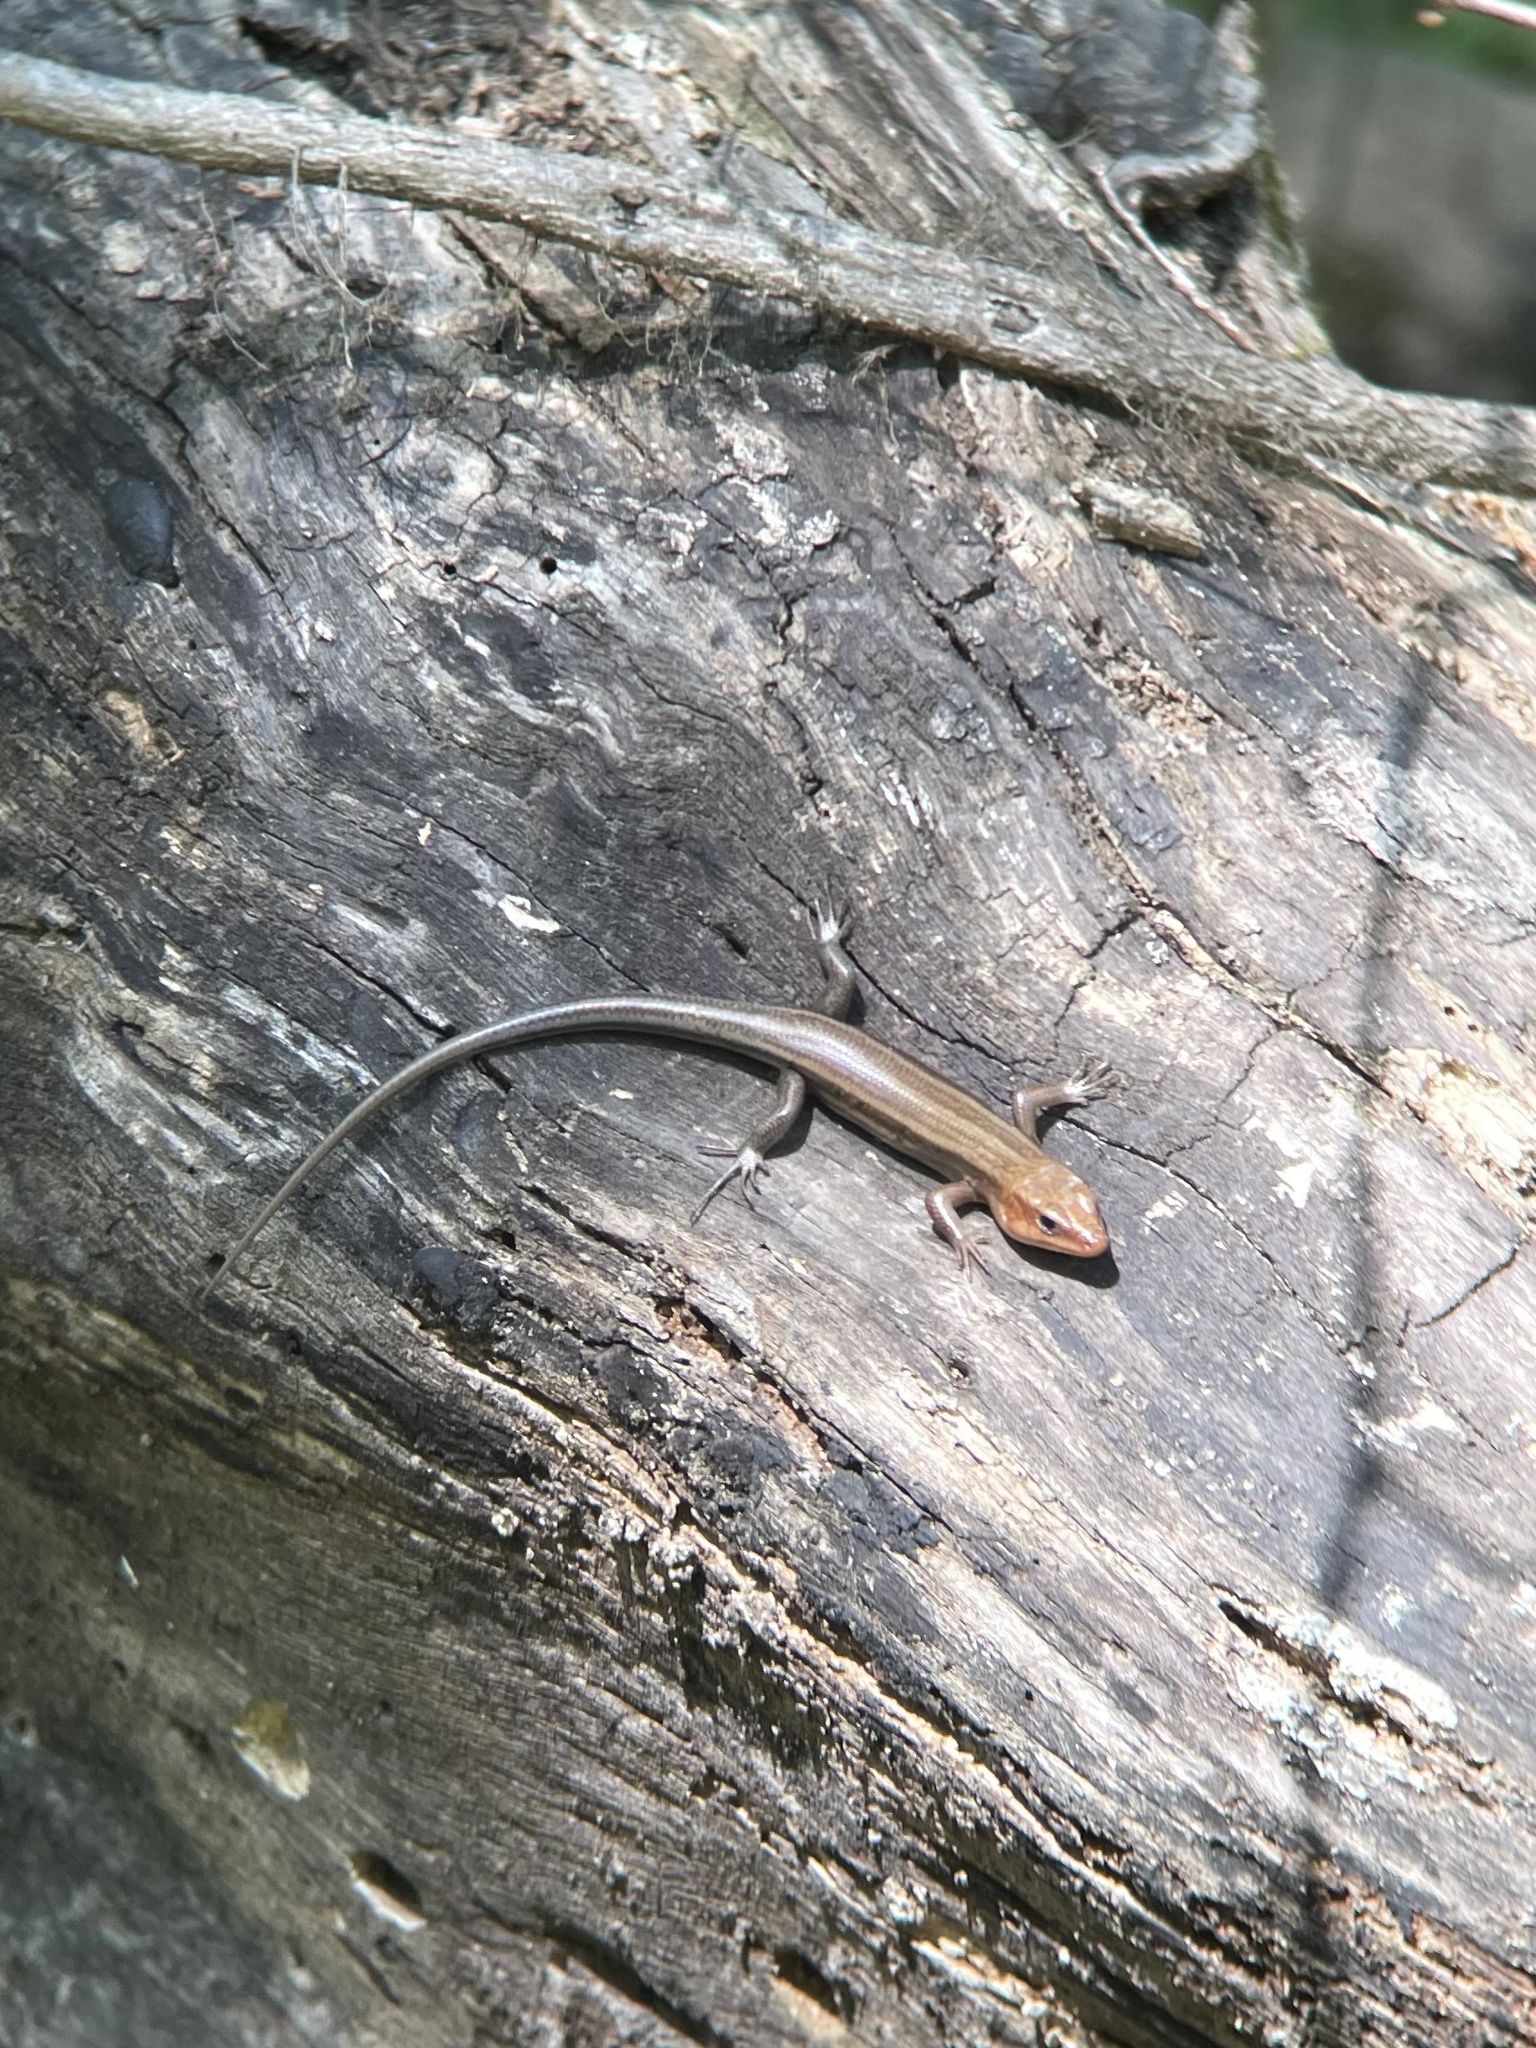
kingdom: Animalia
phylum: Chordata
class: Squamata
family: Scincidae
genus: Plestiodon
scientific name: Plestiodon fasciatus
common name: Five-lined skink
